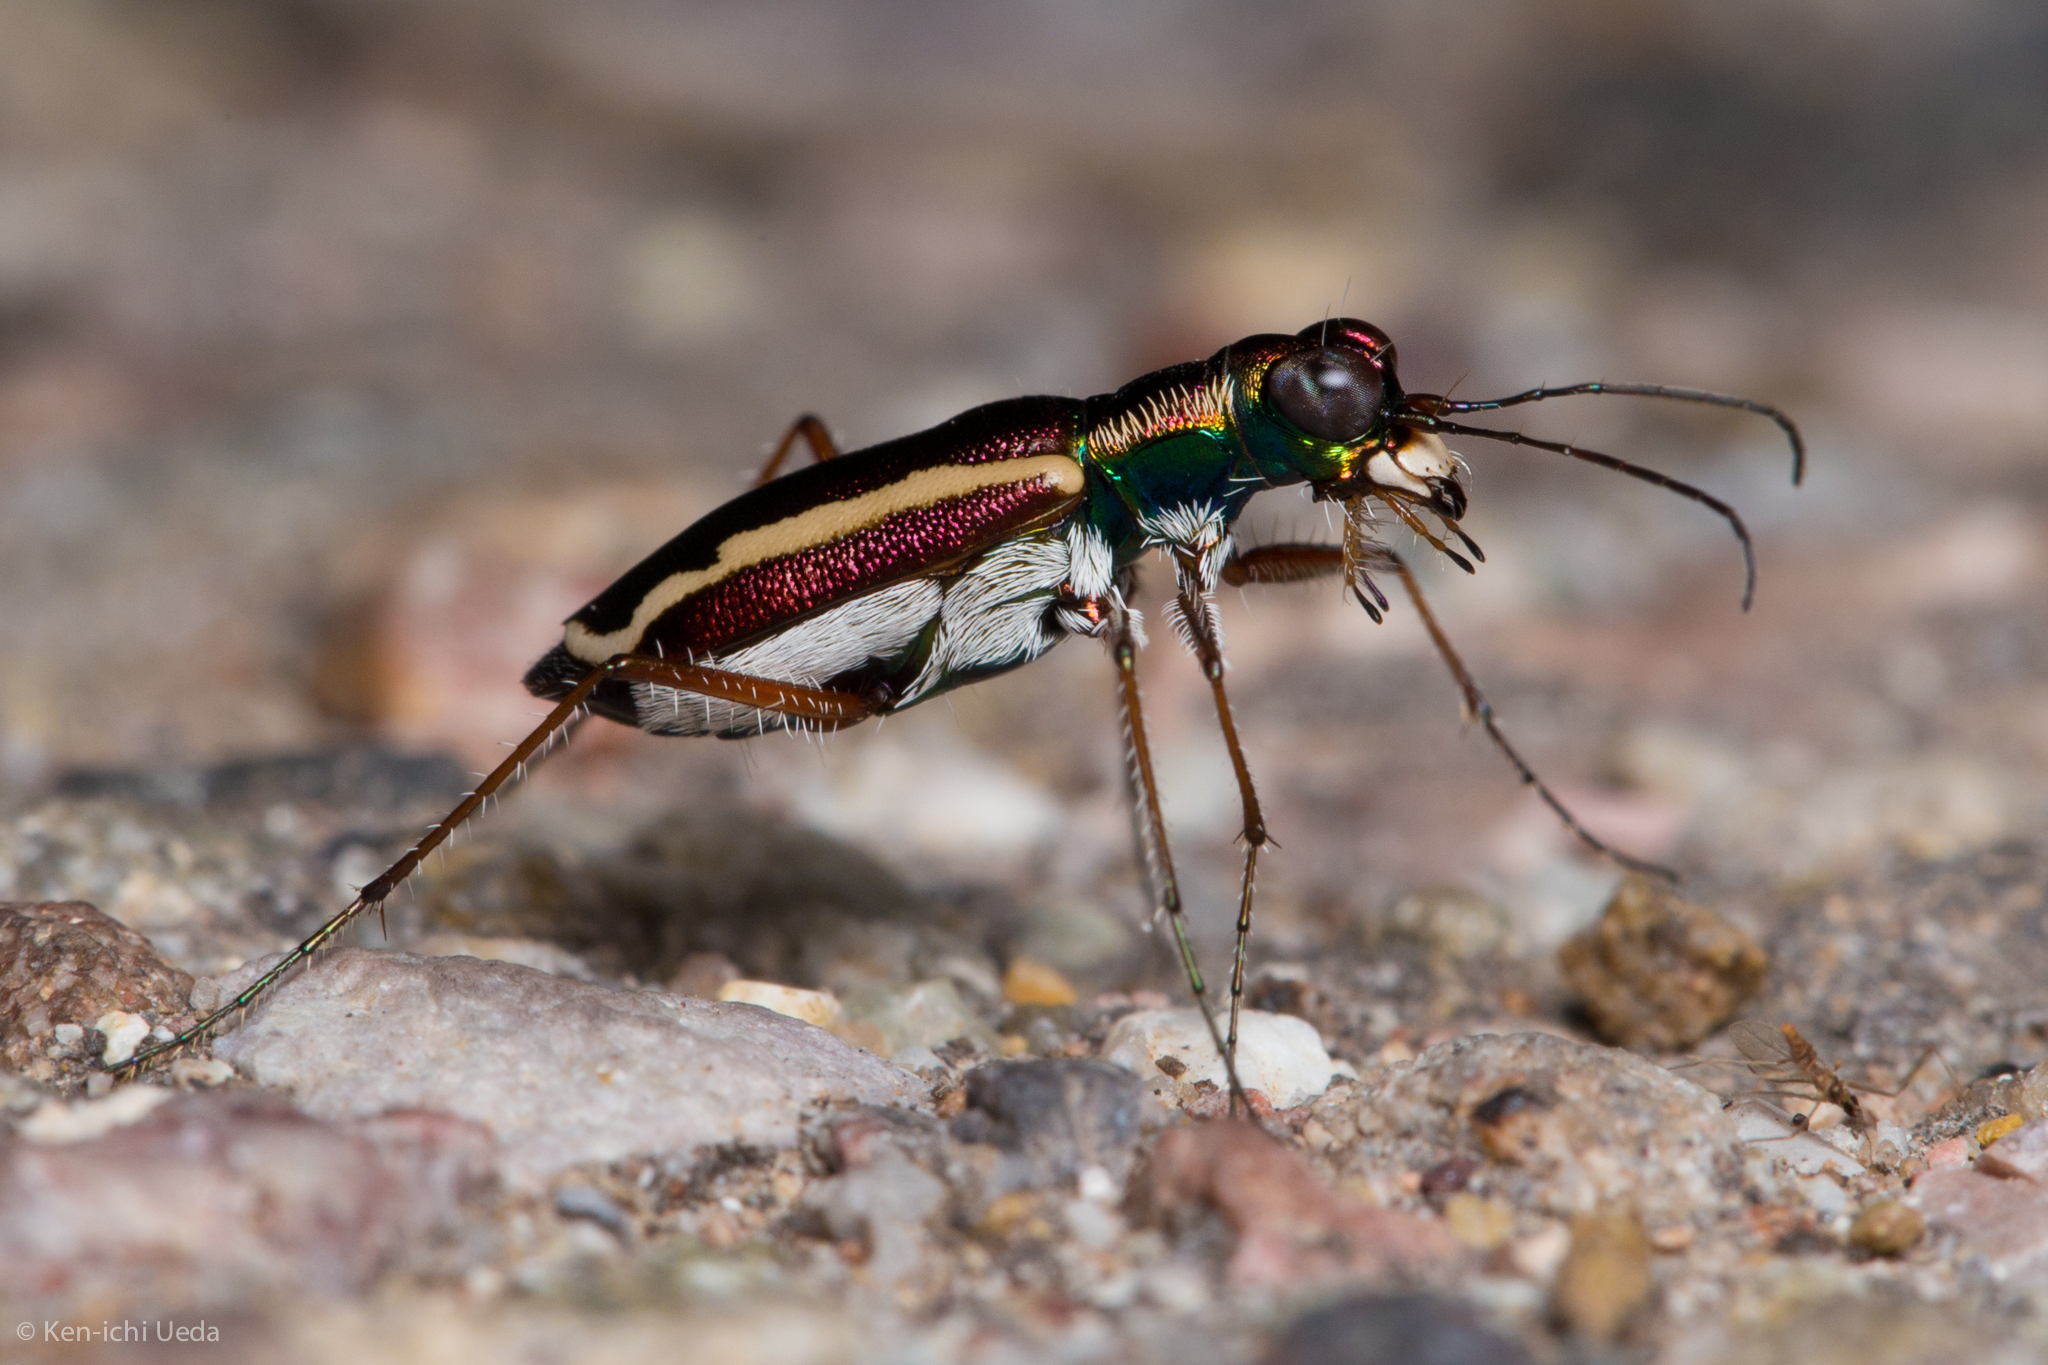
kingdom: Animalia
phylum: Arthropoda
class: Insecta
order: Coleoptera
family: Carabidae
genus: Cylindera
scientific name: Cylindera lemniscata
